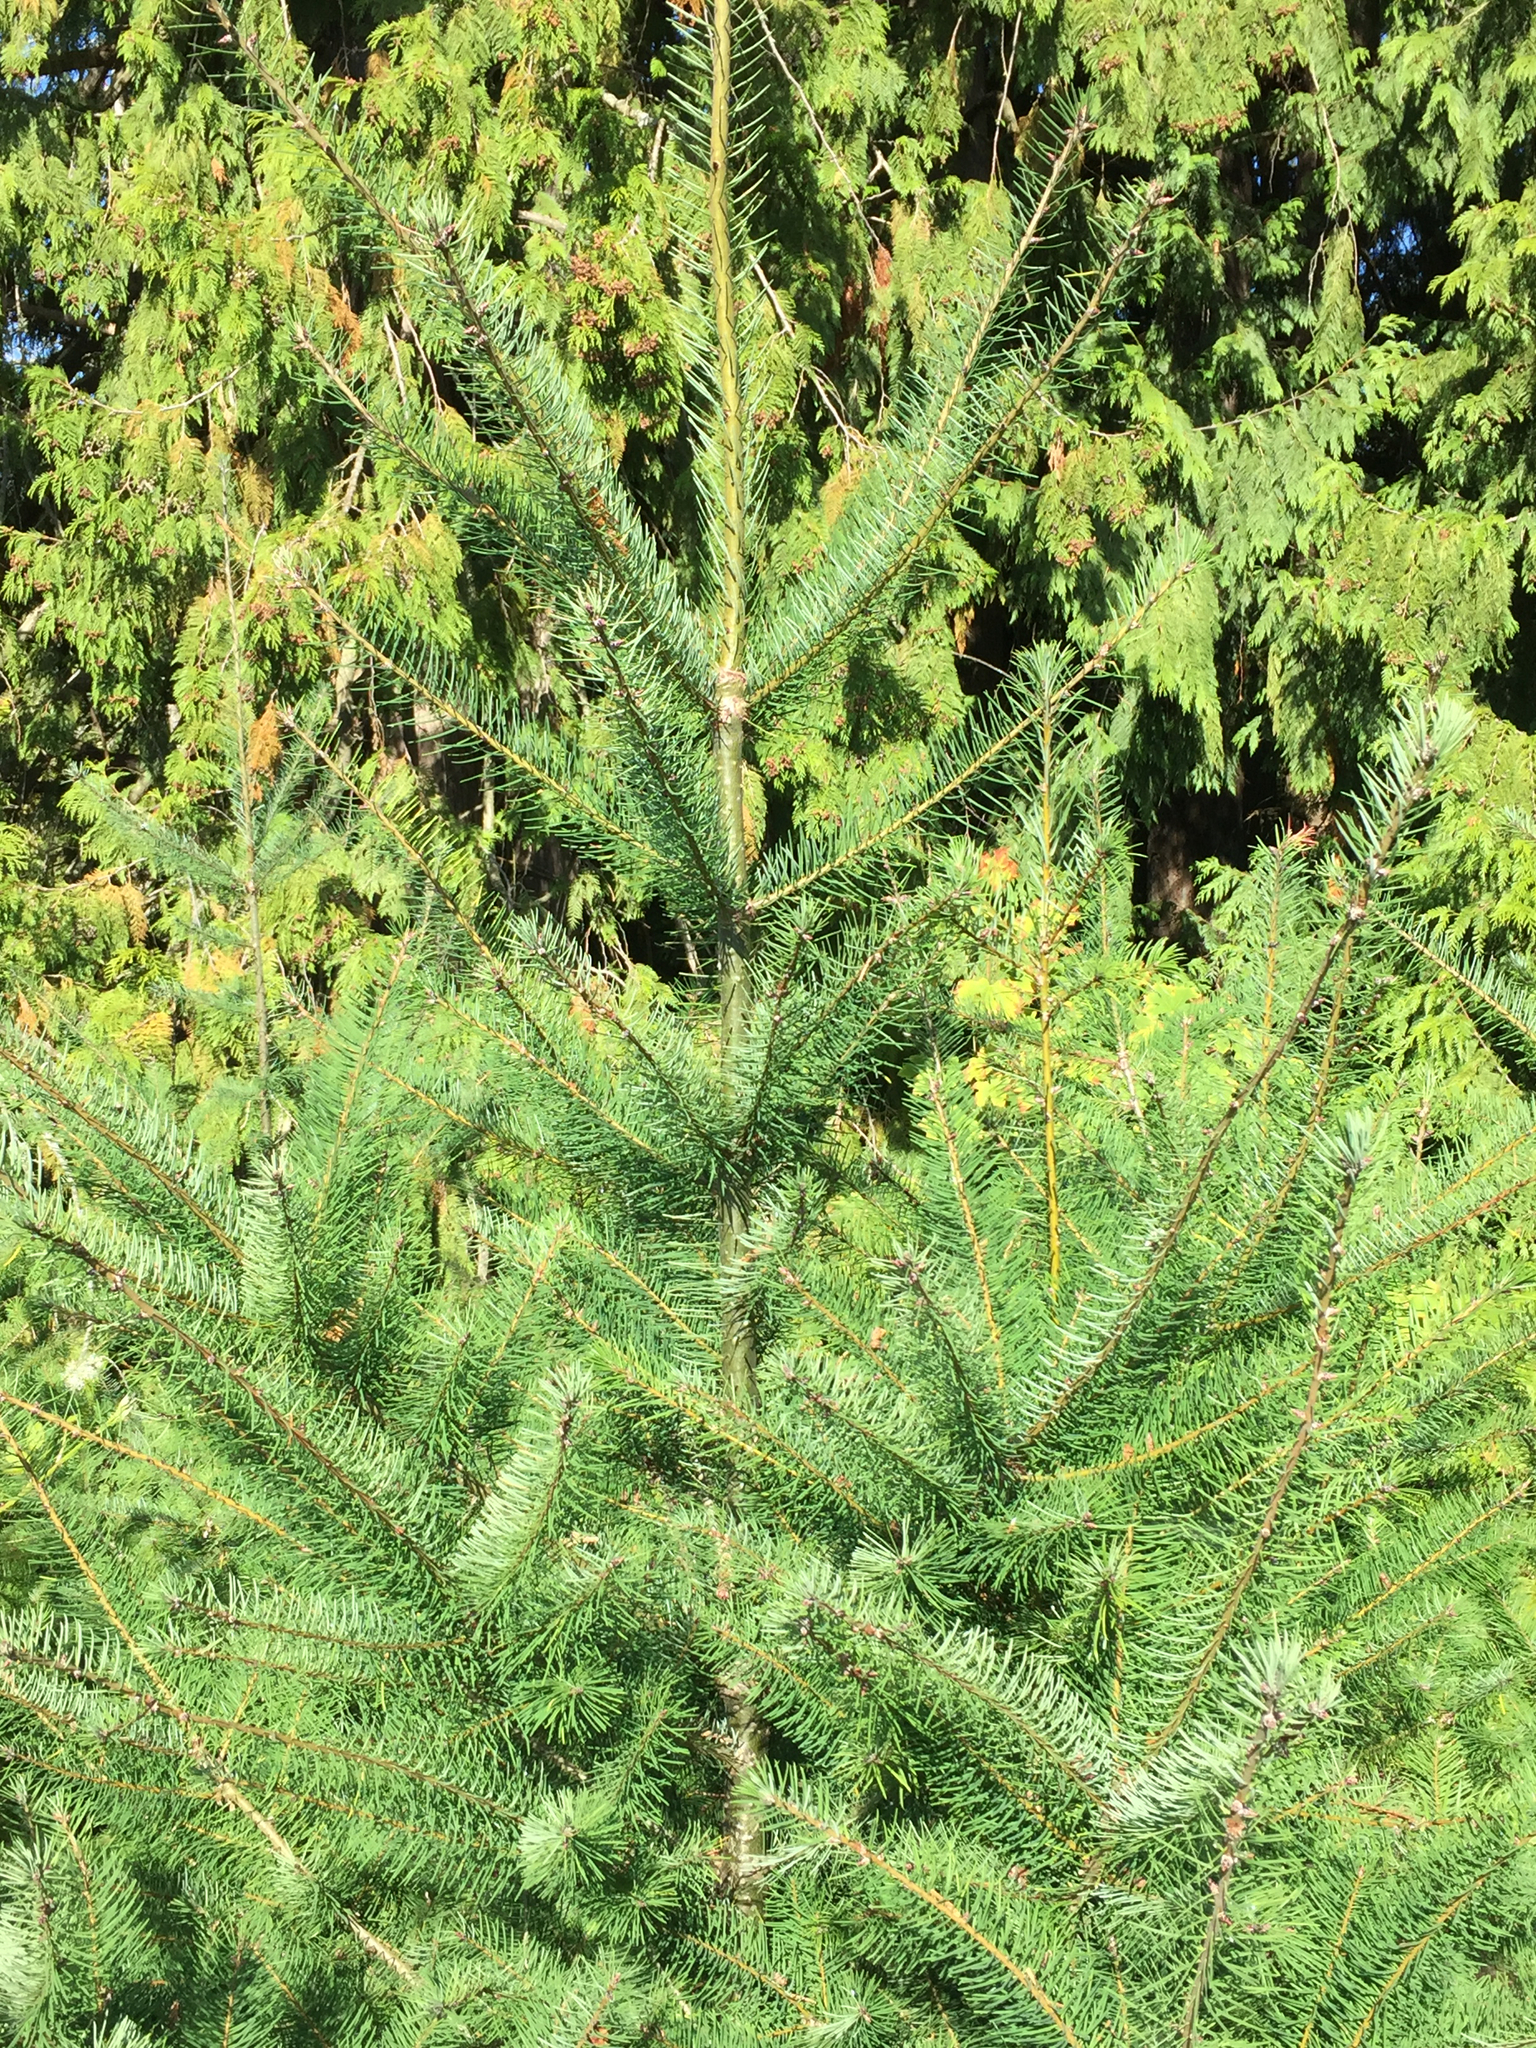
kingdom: Plantae
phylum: Tracheophyta
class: Pinopsida
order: Pinales
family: Pinaceae
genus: Pseudotsuga
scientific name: Pseudotsuga menziesii
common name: Douglas fir
